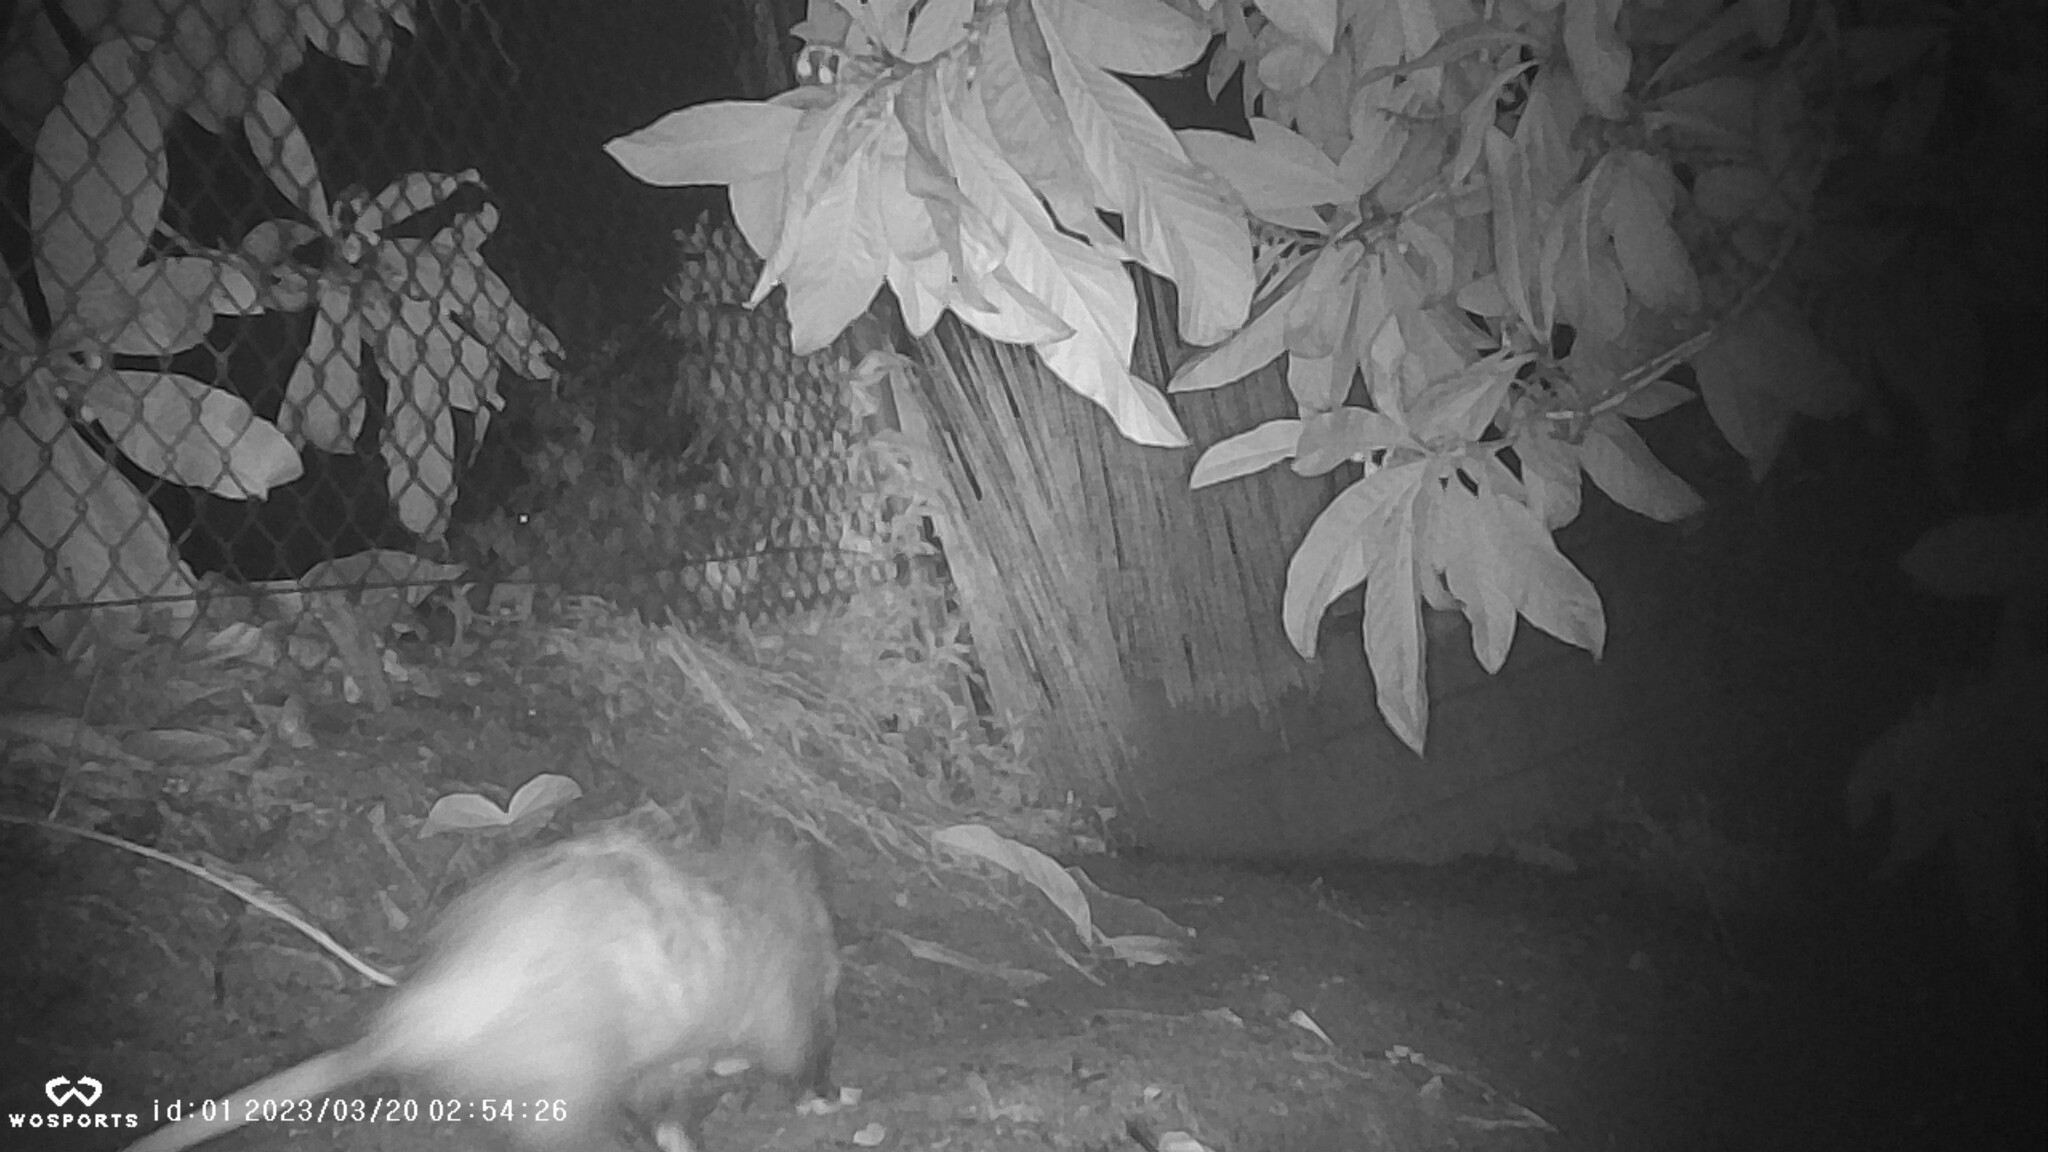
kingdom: Animalia
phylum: Chordata
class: Mammalia
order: Didelphimorphia
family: Didelphidae
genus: Didelphis
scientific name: Didelphis virginiana
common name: Virginia opossum
